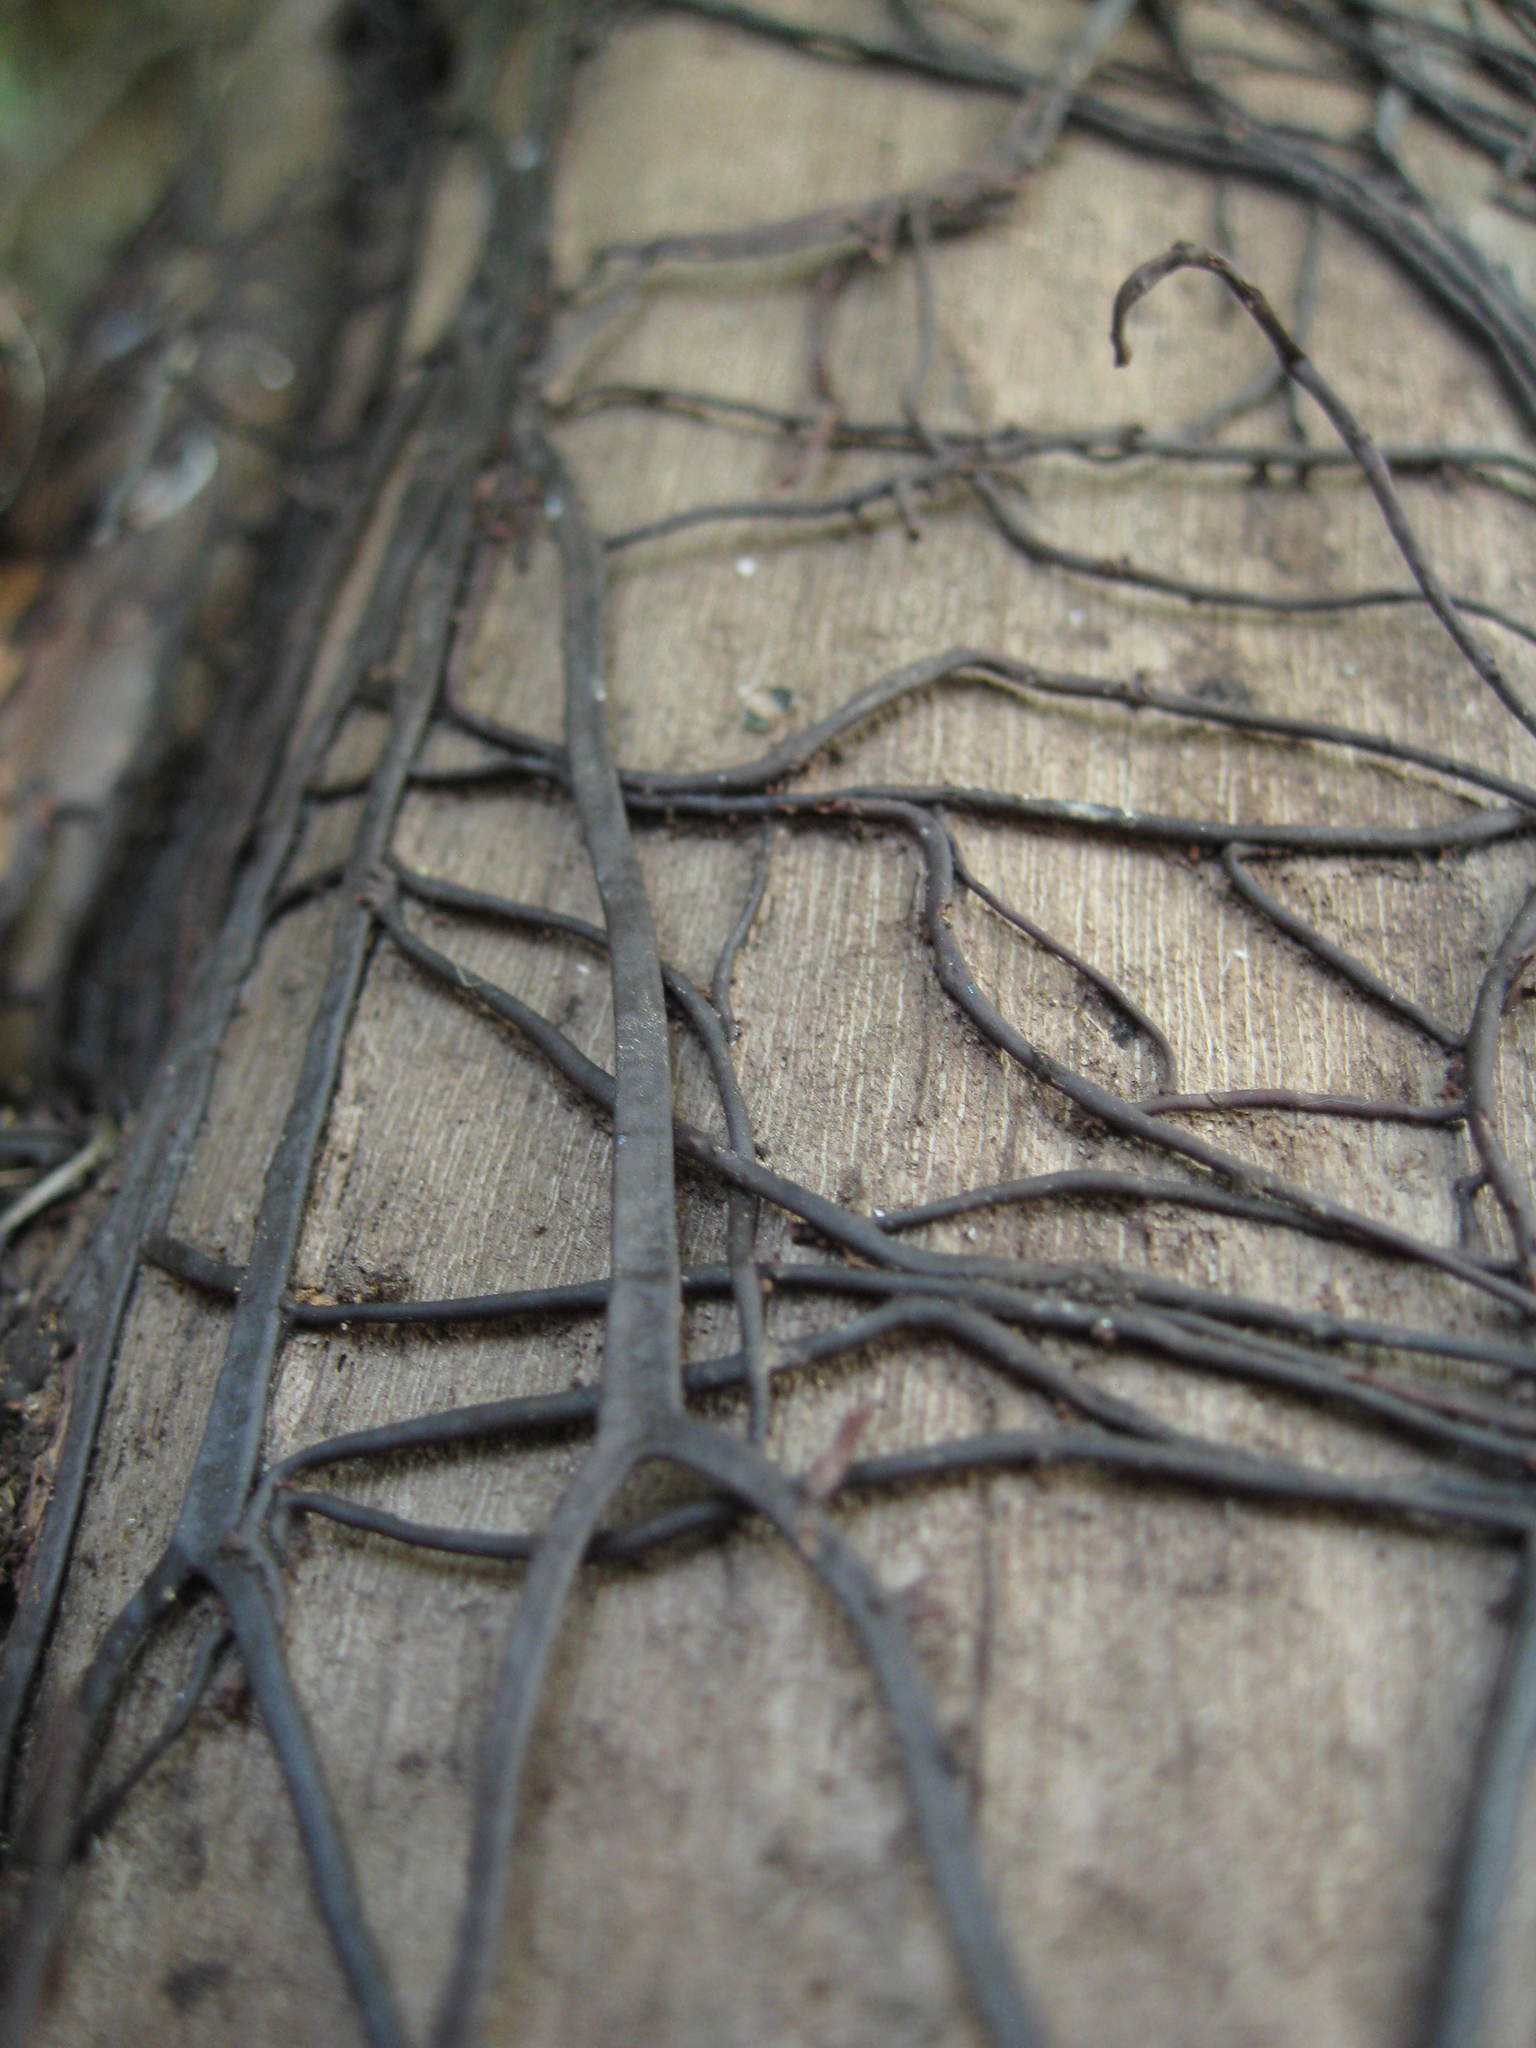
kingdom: Fungi
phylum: Basidiomycota
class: Agaricomycetes
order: Agaricales
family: Physalacriaceae
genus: Armillaria
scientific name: Armillaria mellea
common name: Honey fungus
